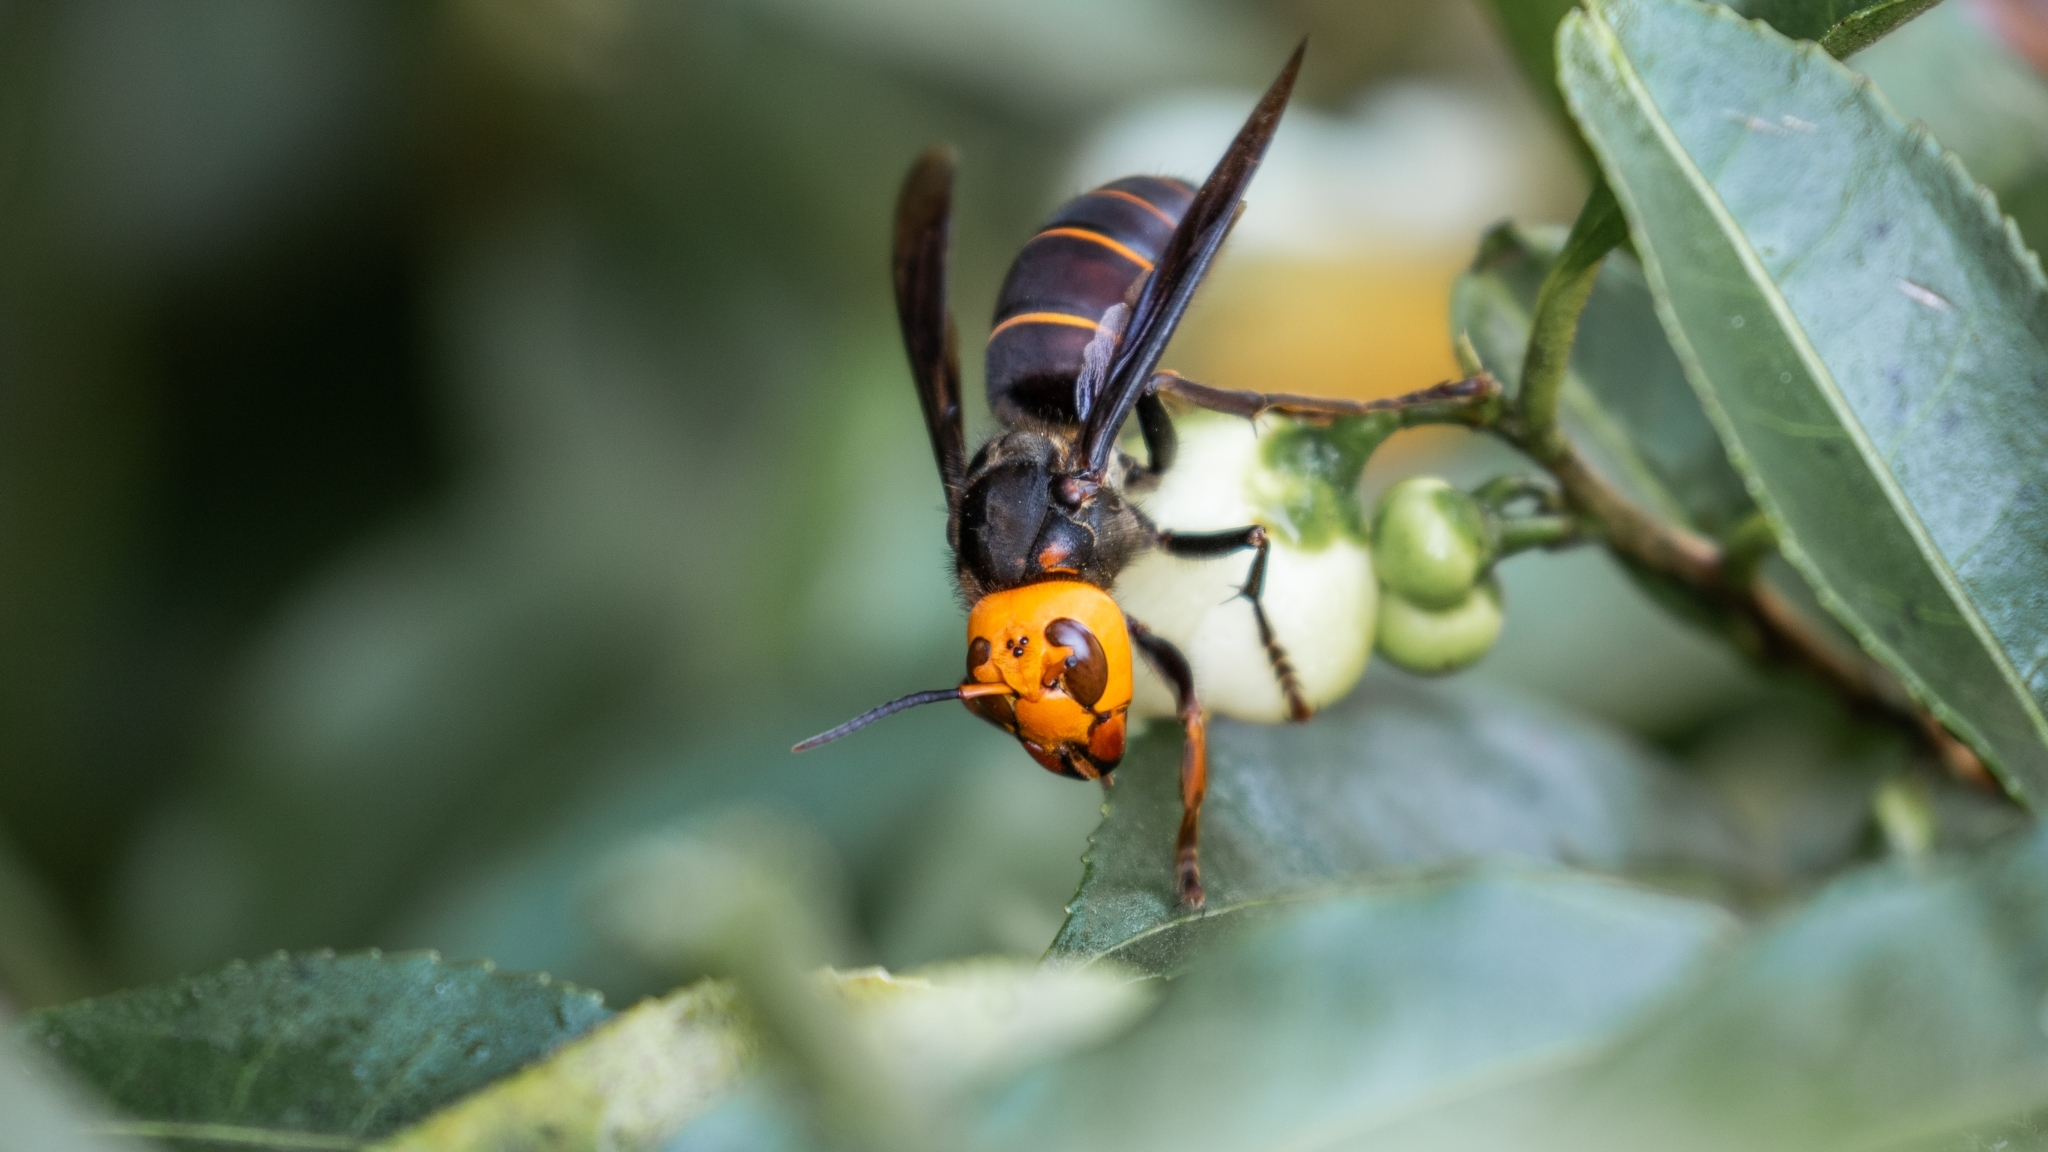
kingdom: Animalia
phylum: Arthropoda
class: Insecta
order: Hymenoptera
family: Vespidae
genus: Vespa
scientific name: Vespa mandarinia
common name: Asian giant hornet
